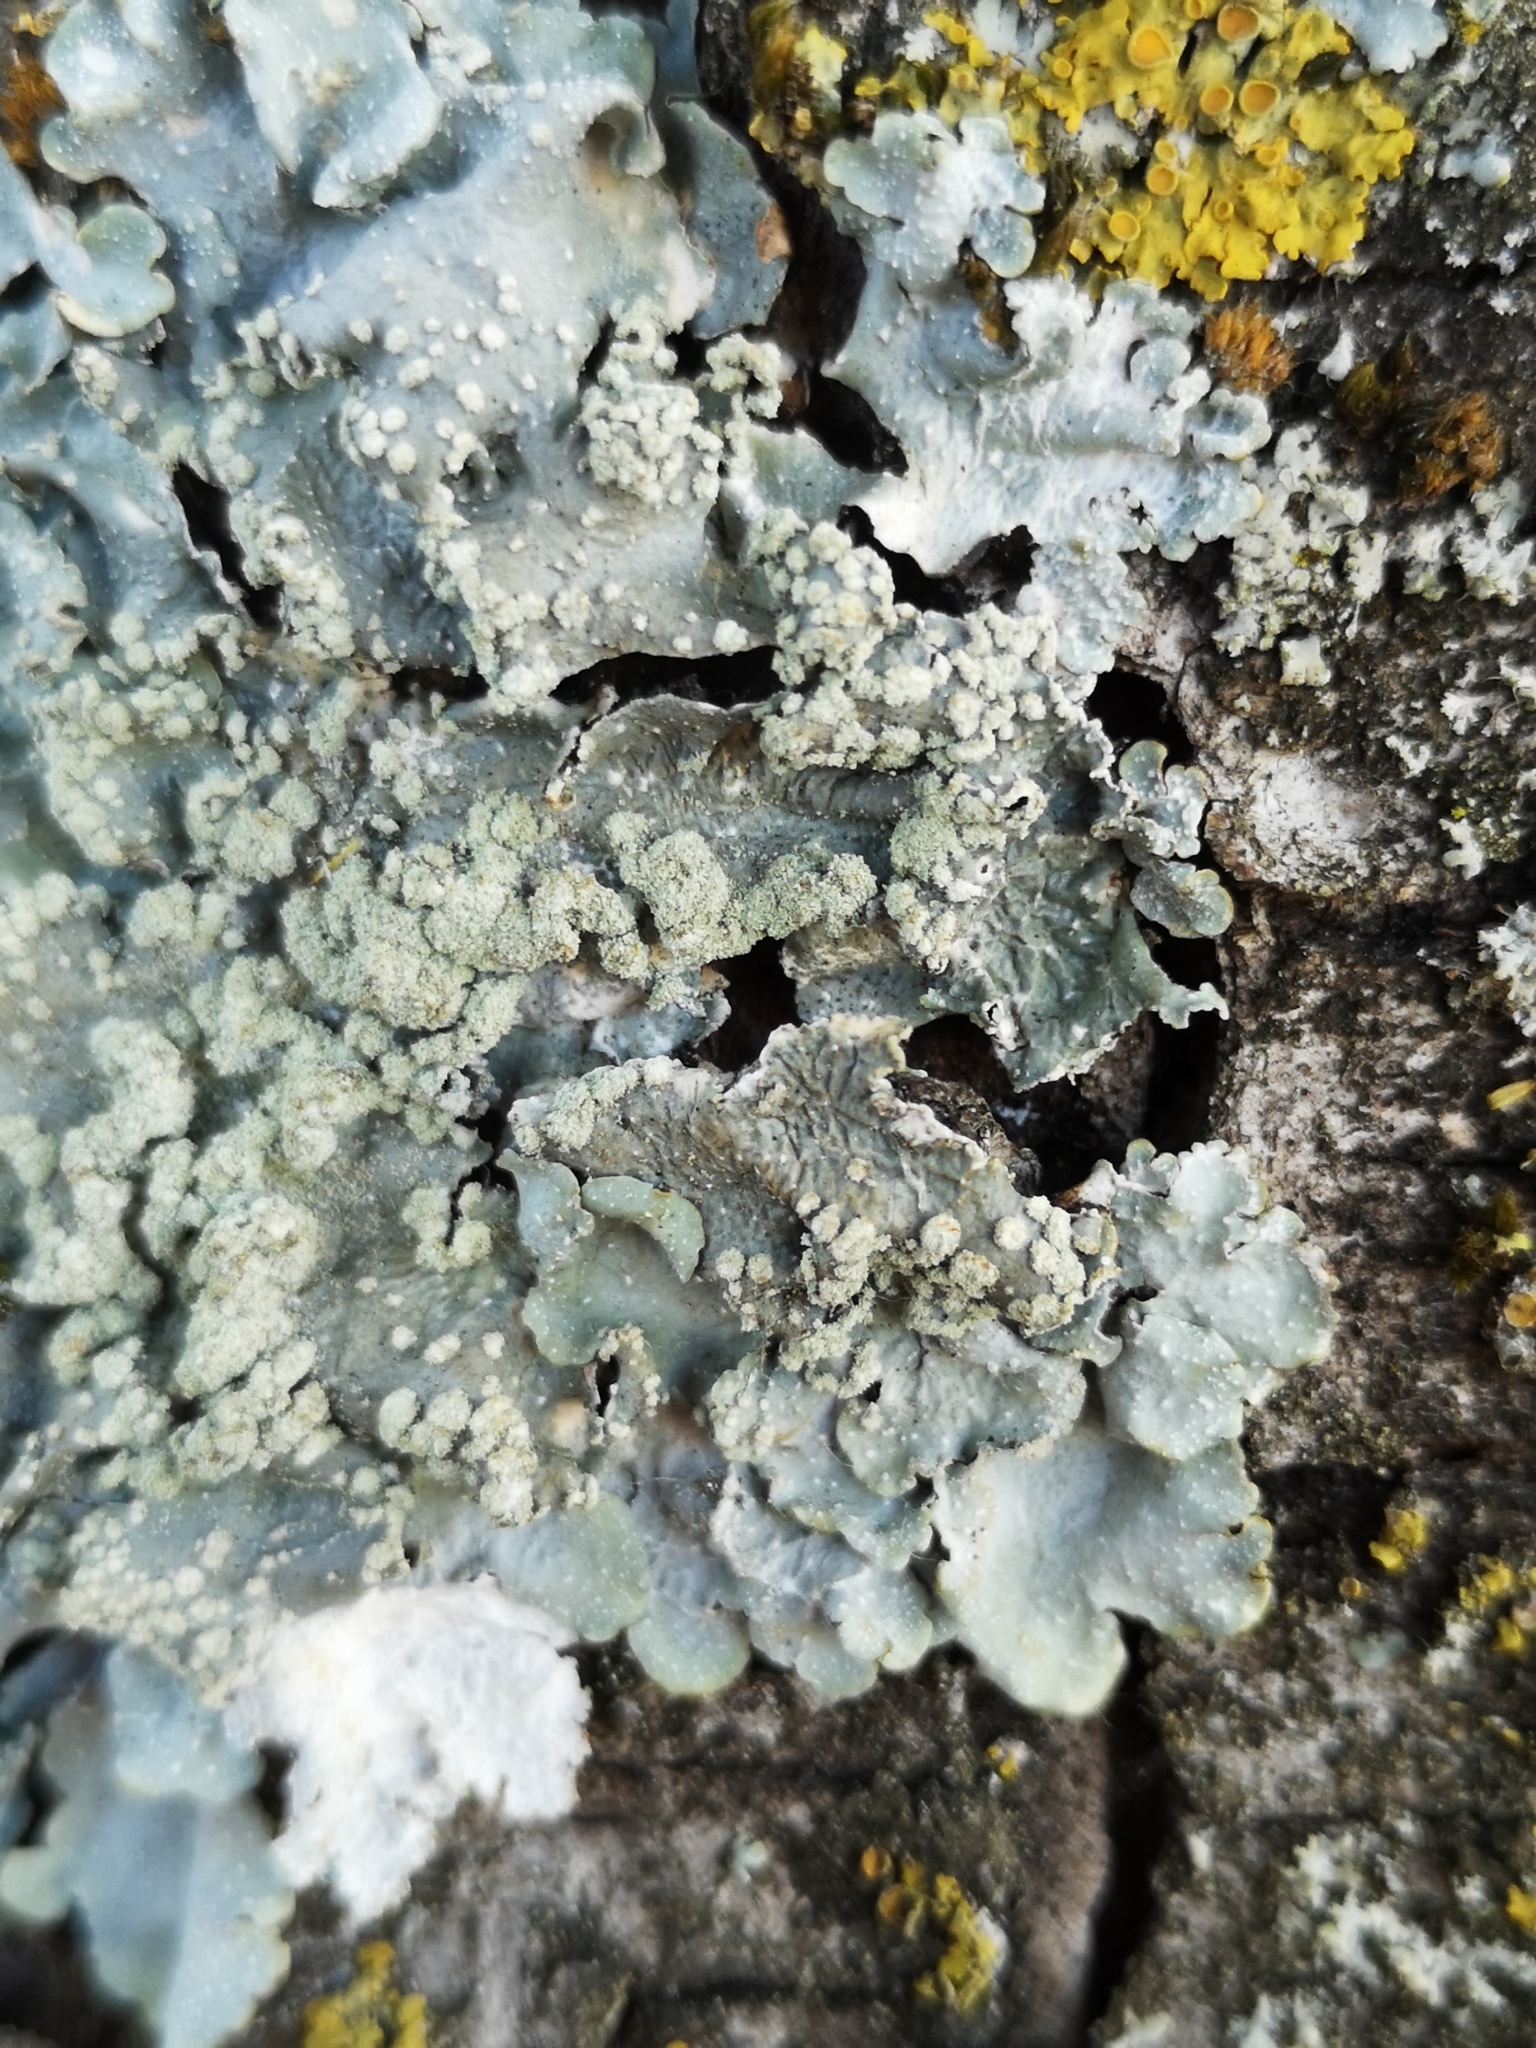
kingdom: Fungi
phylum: Ascomycota
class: Lecanoromycetes
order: Lecanorales
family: Parmeliaceae
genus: Punctelia
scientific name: Punctelia
